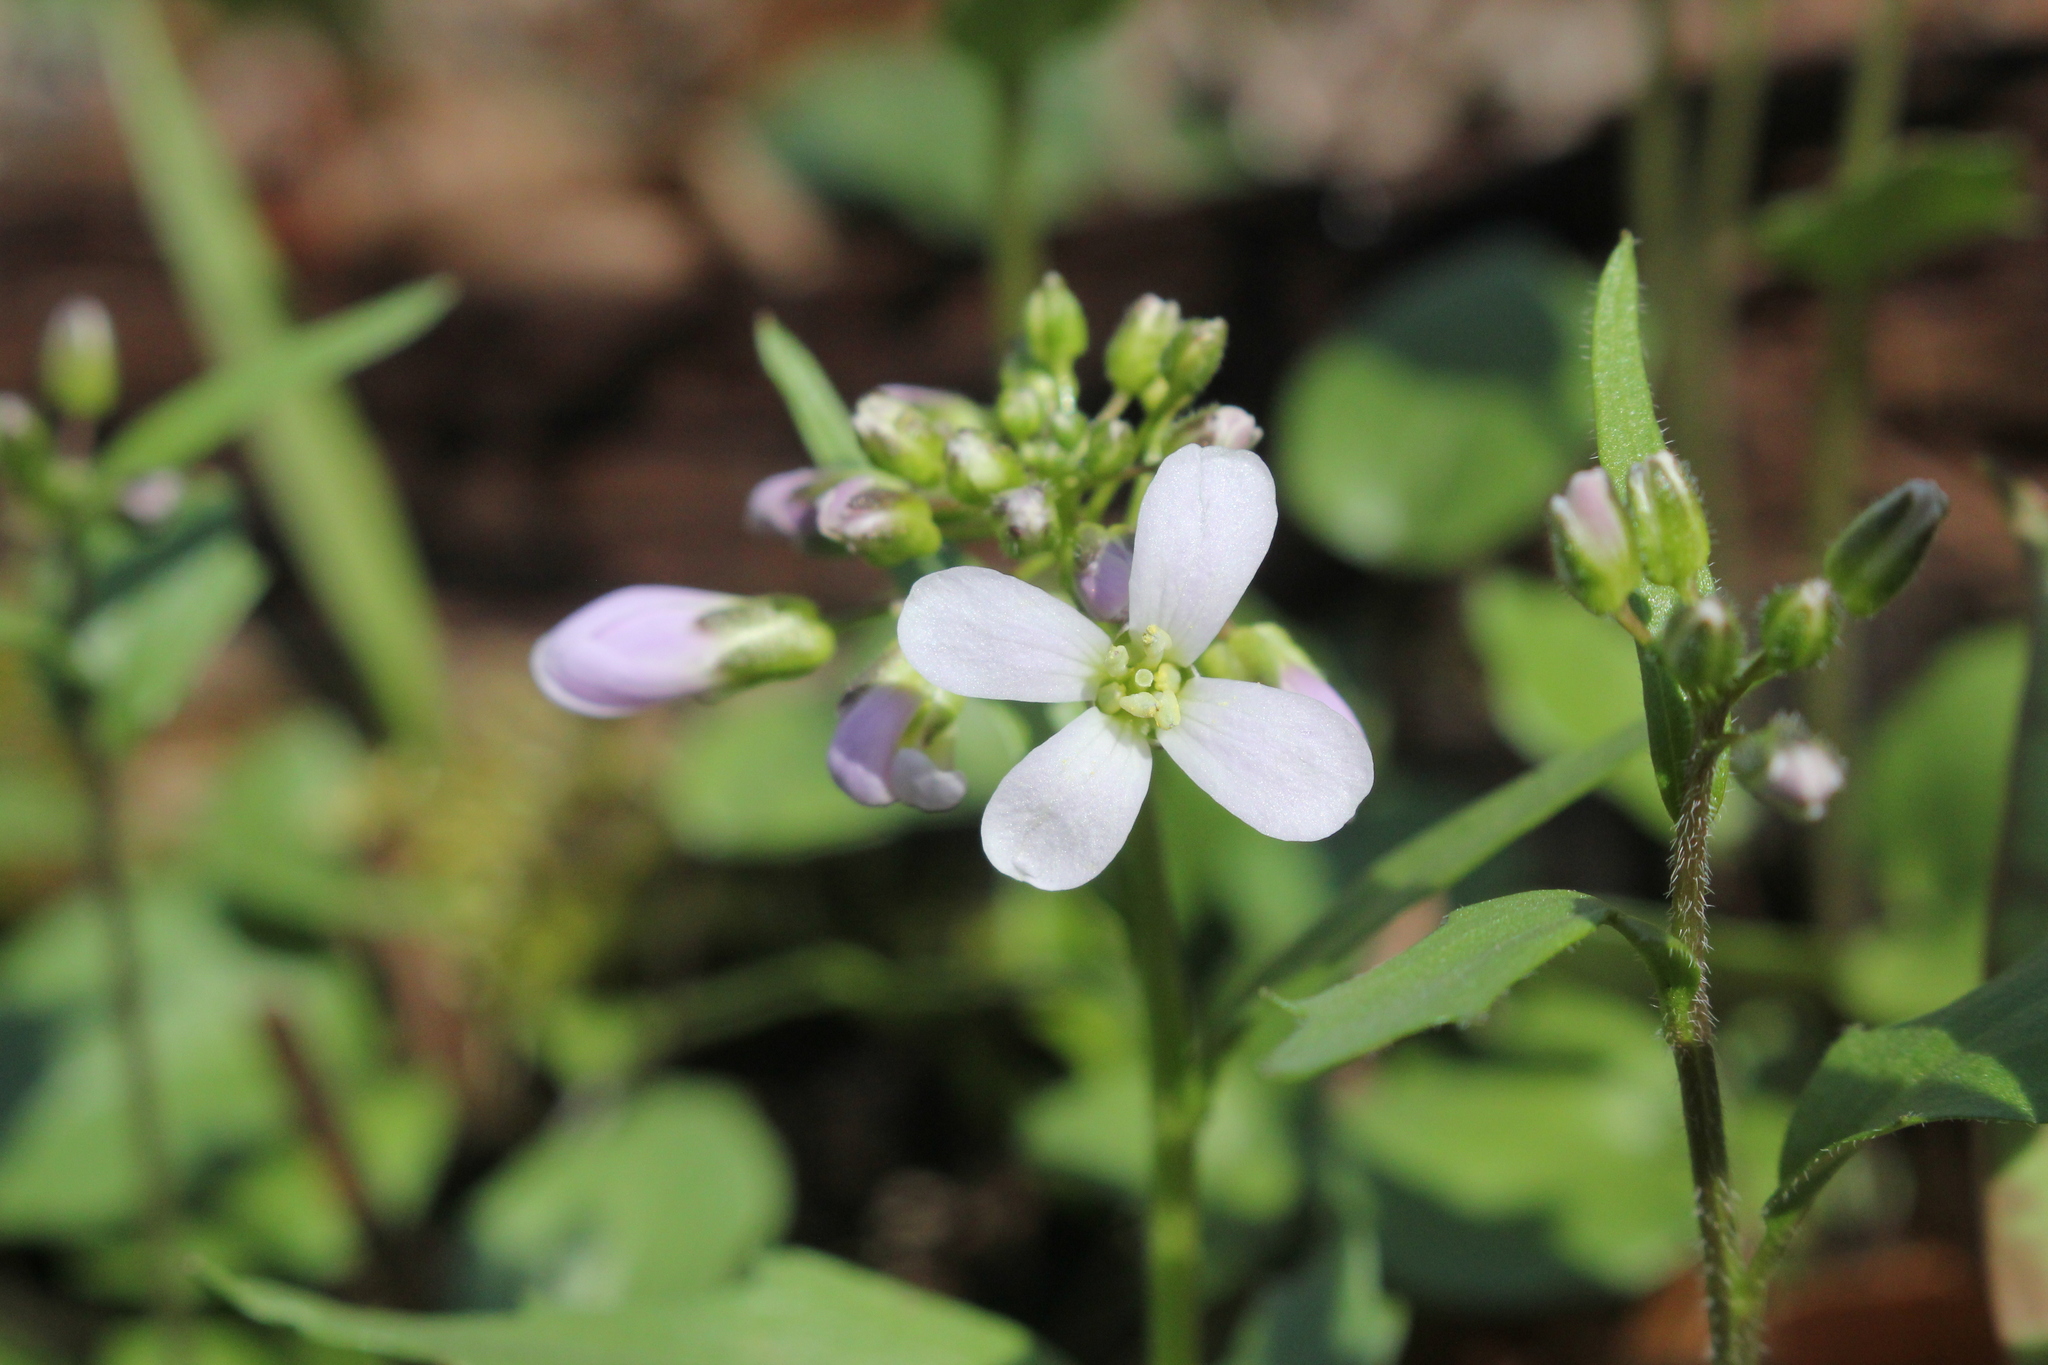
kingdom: Plantae
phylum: Tracheophyta
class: Magnoliopsida
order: Brassicales
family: Brassicaceae
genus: Cardamine
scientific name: Cardamine douglassii
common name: Purple cress
